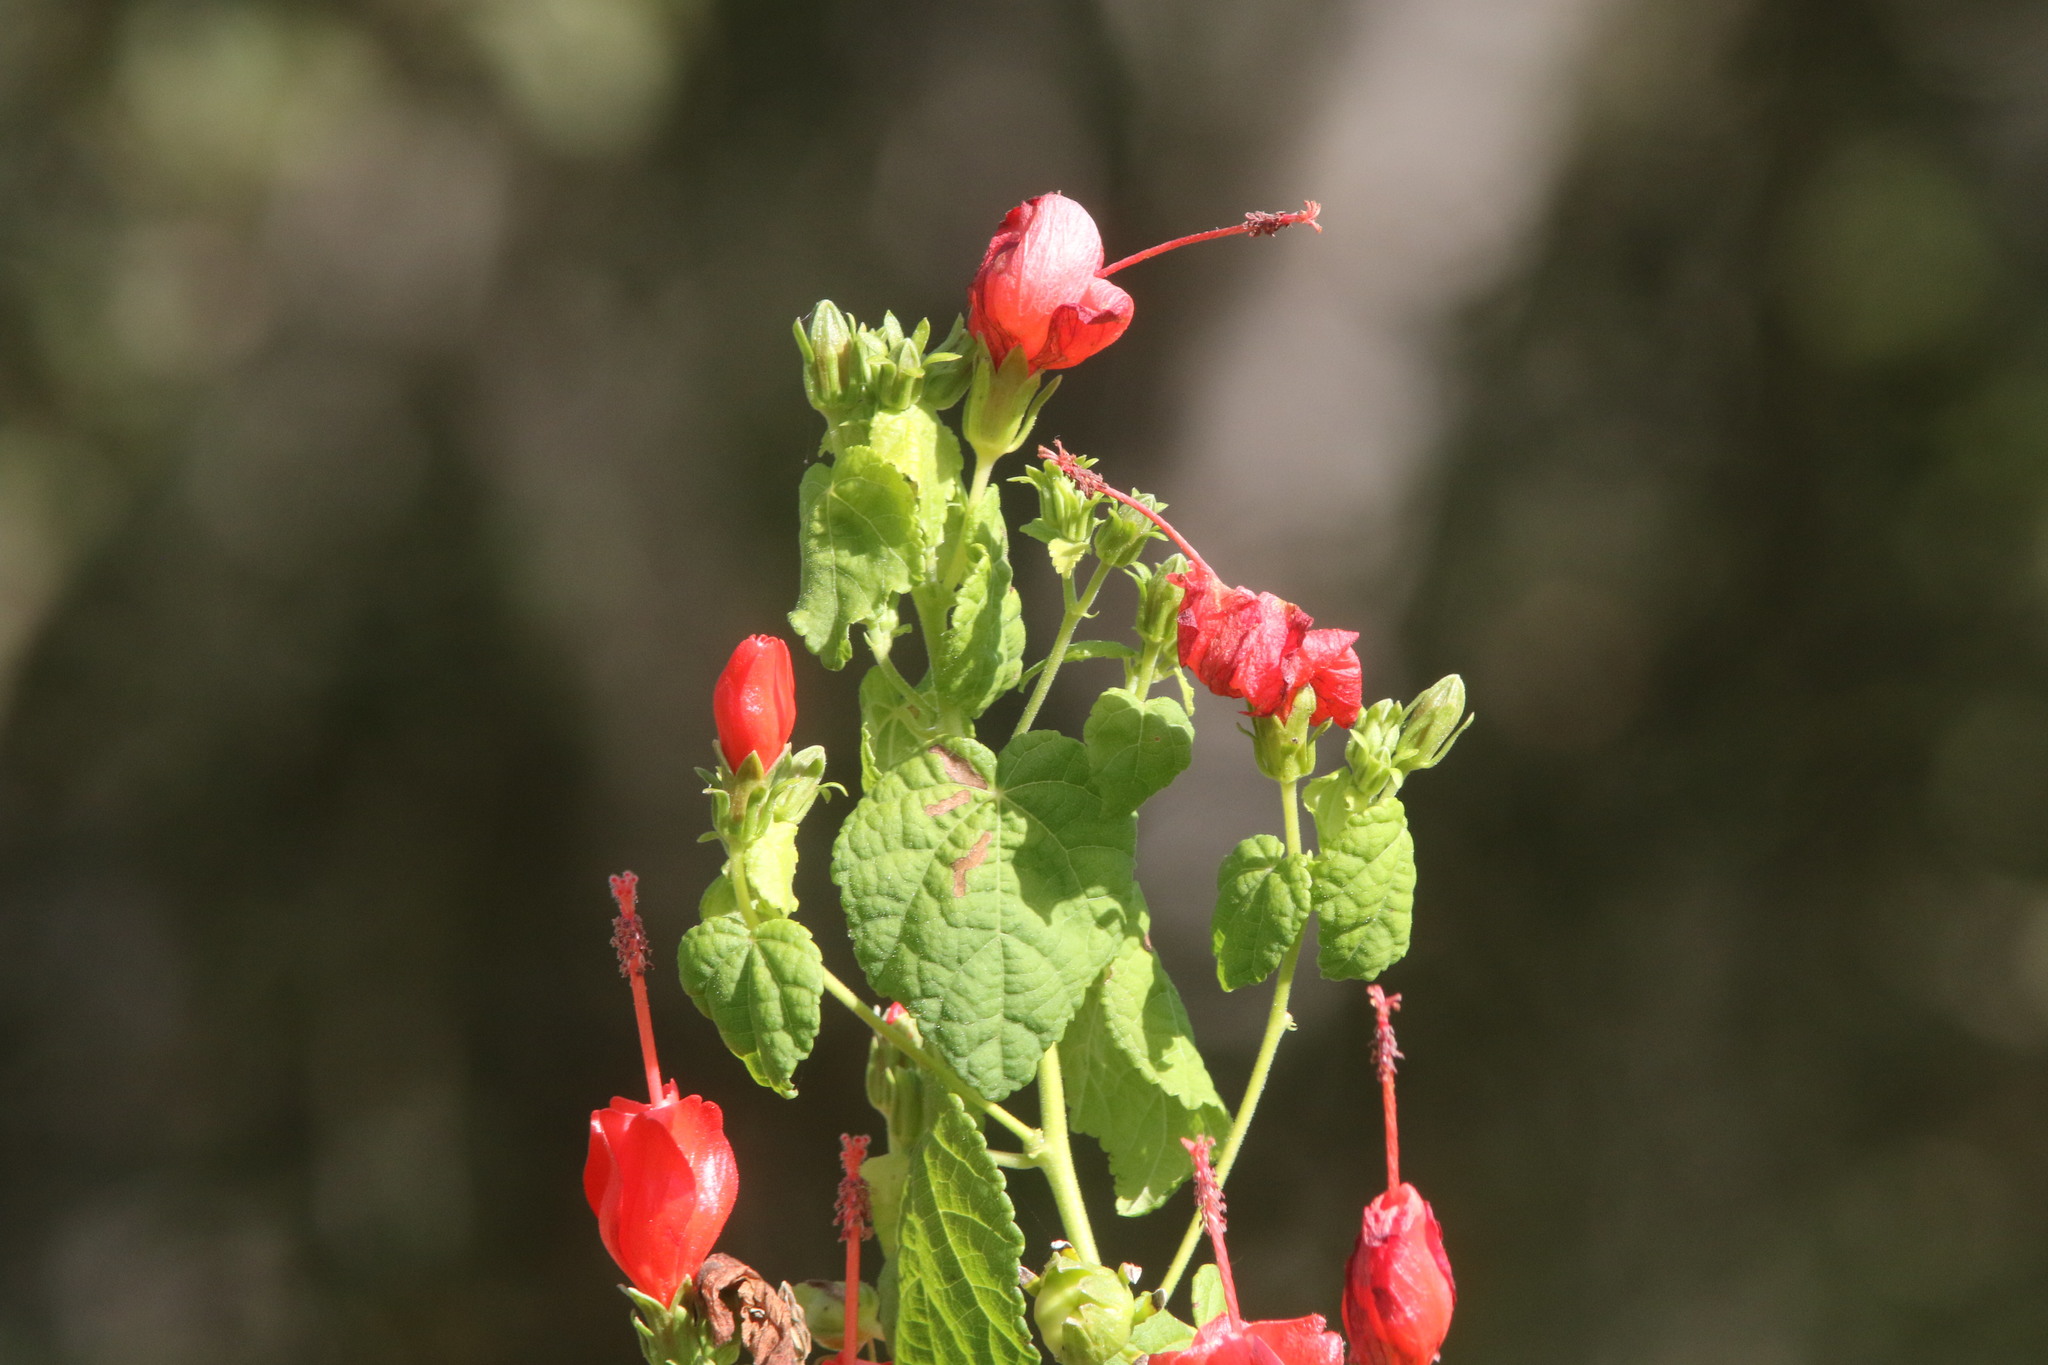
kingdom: Plantae
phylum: Tracheophyta
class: Magnoliopsida
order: Malvales
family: Malvaceae
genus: Malvaviscus
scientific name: Malvaviscus arboreus
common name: Wax mallow
